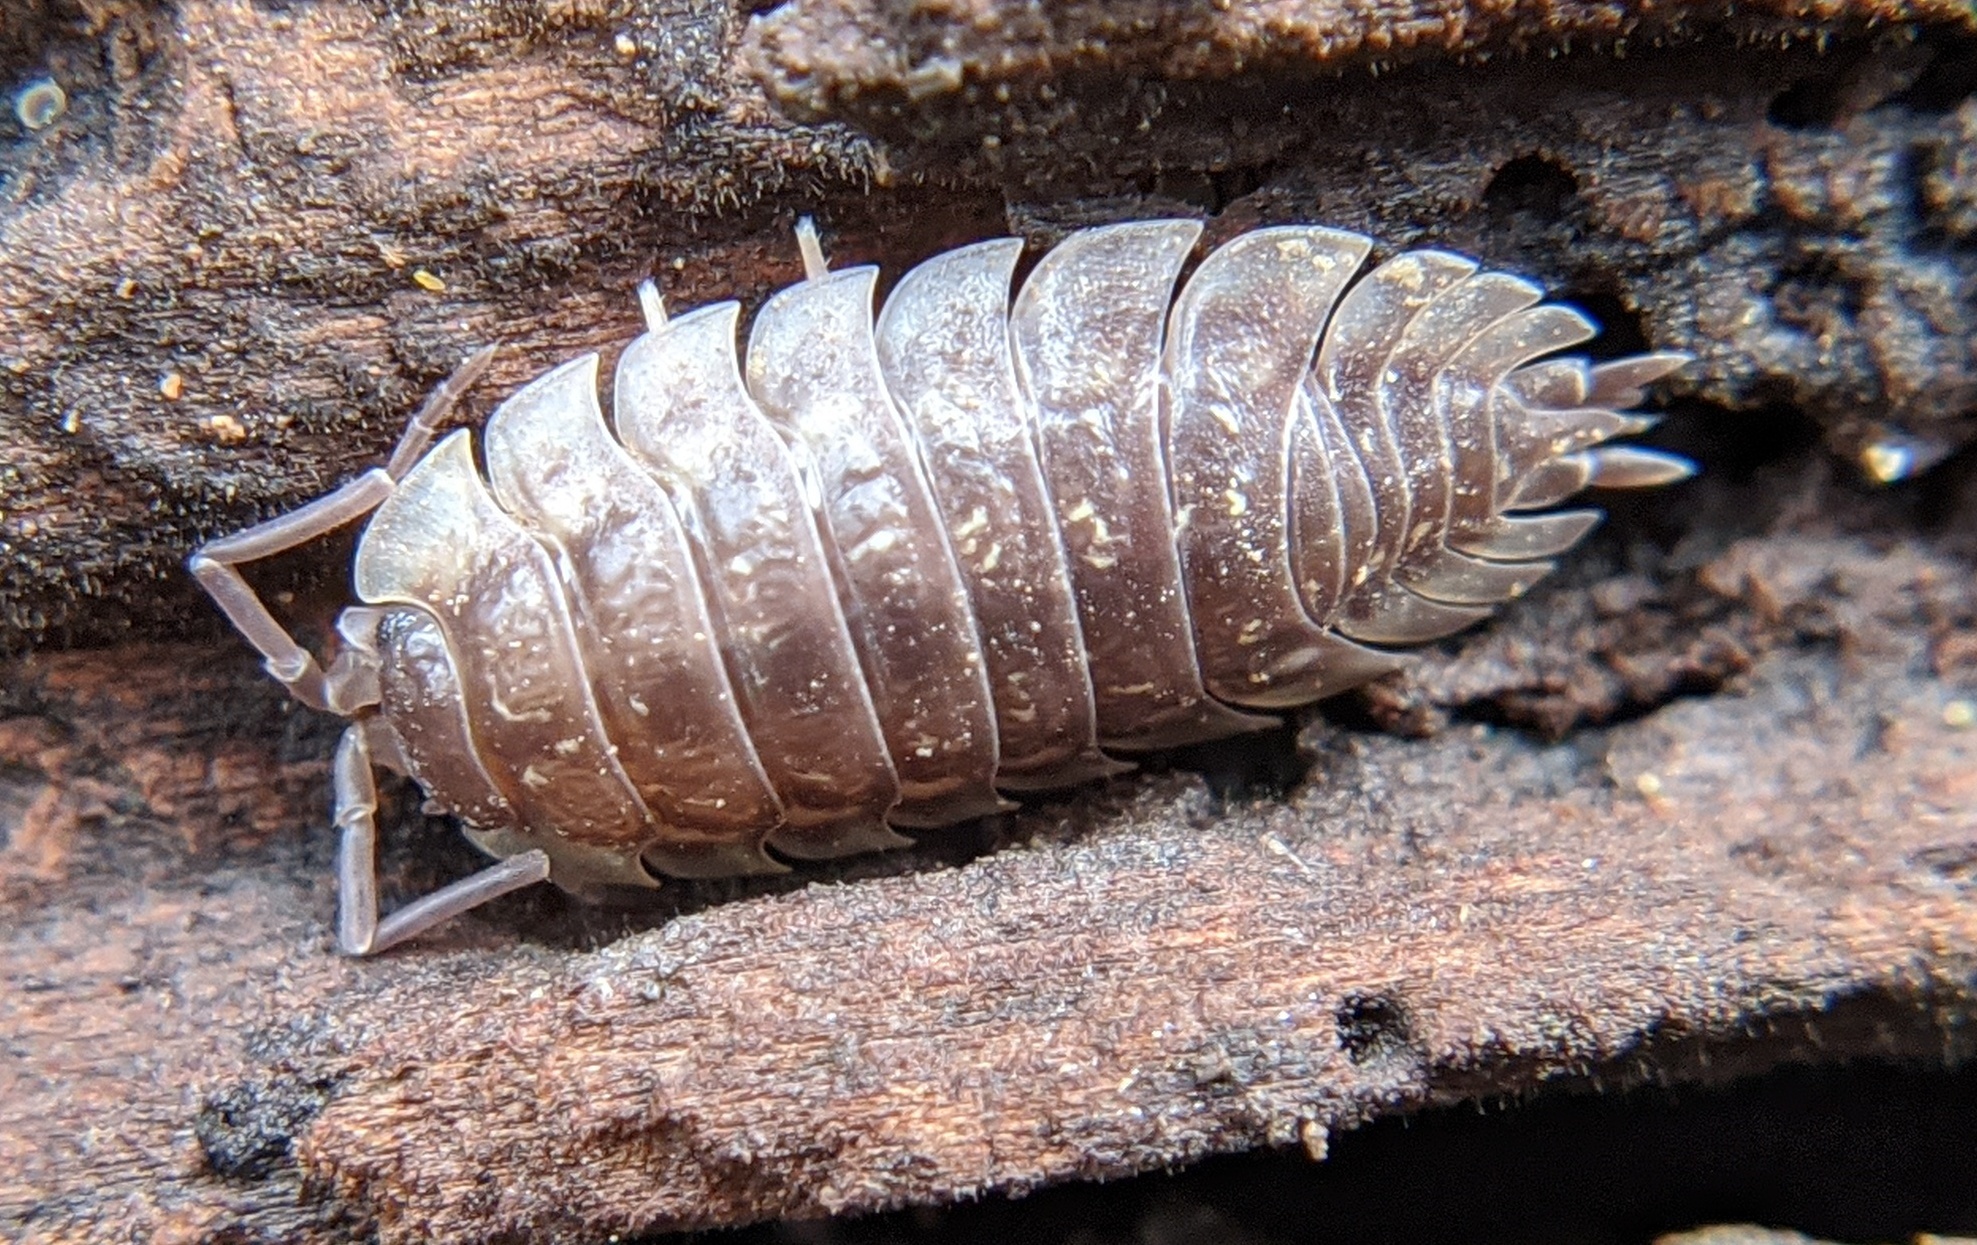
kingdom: Animalia
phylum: Arthropoda
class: Malacostraca
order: Isopoda
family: Oniscidae
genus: Oniscus
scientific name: Oniscus asellus
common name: Common shiny woodlouse
